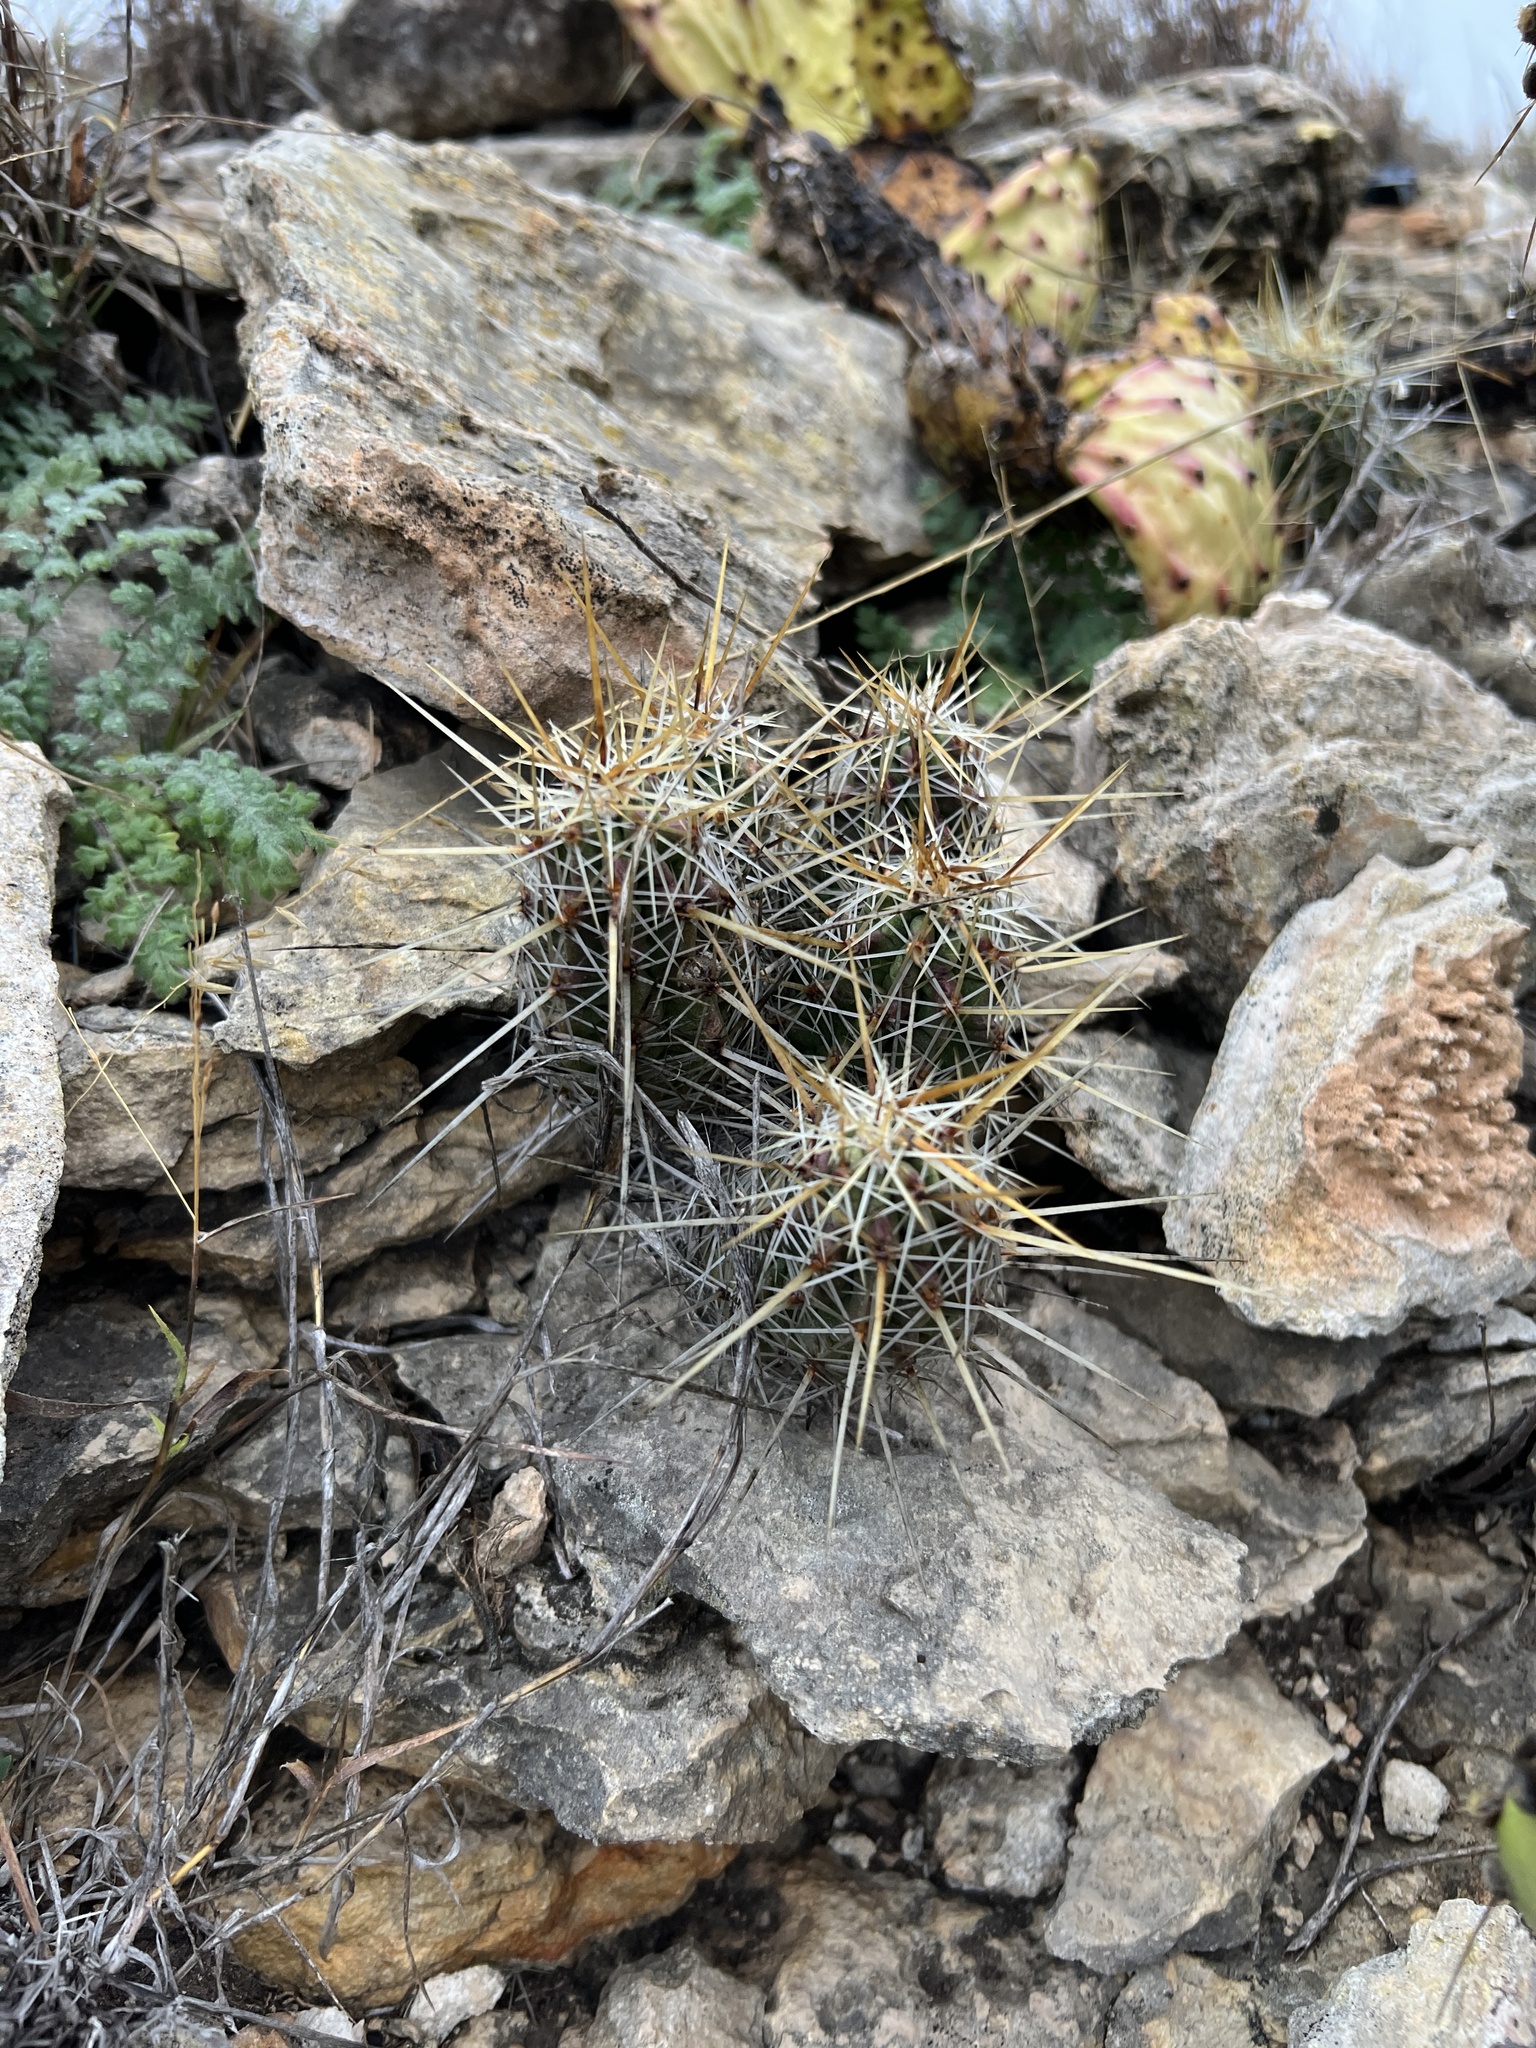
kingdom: Plantae
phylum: Tracheophyta
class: Magnoliopsida
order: Caryophyllales
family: Cactaceae
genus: Echinocereus
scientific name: Echinocereus enneacanthus
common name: Pitaya
